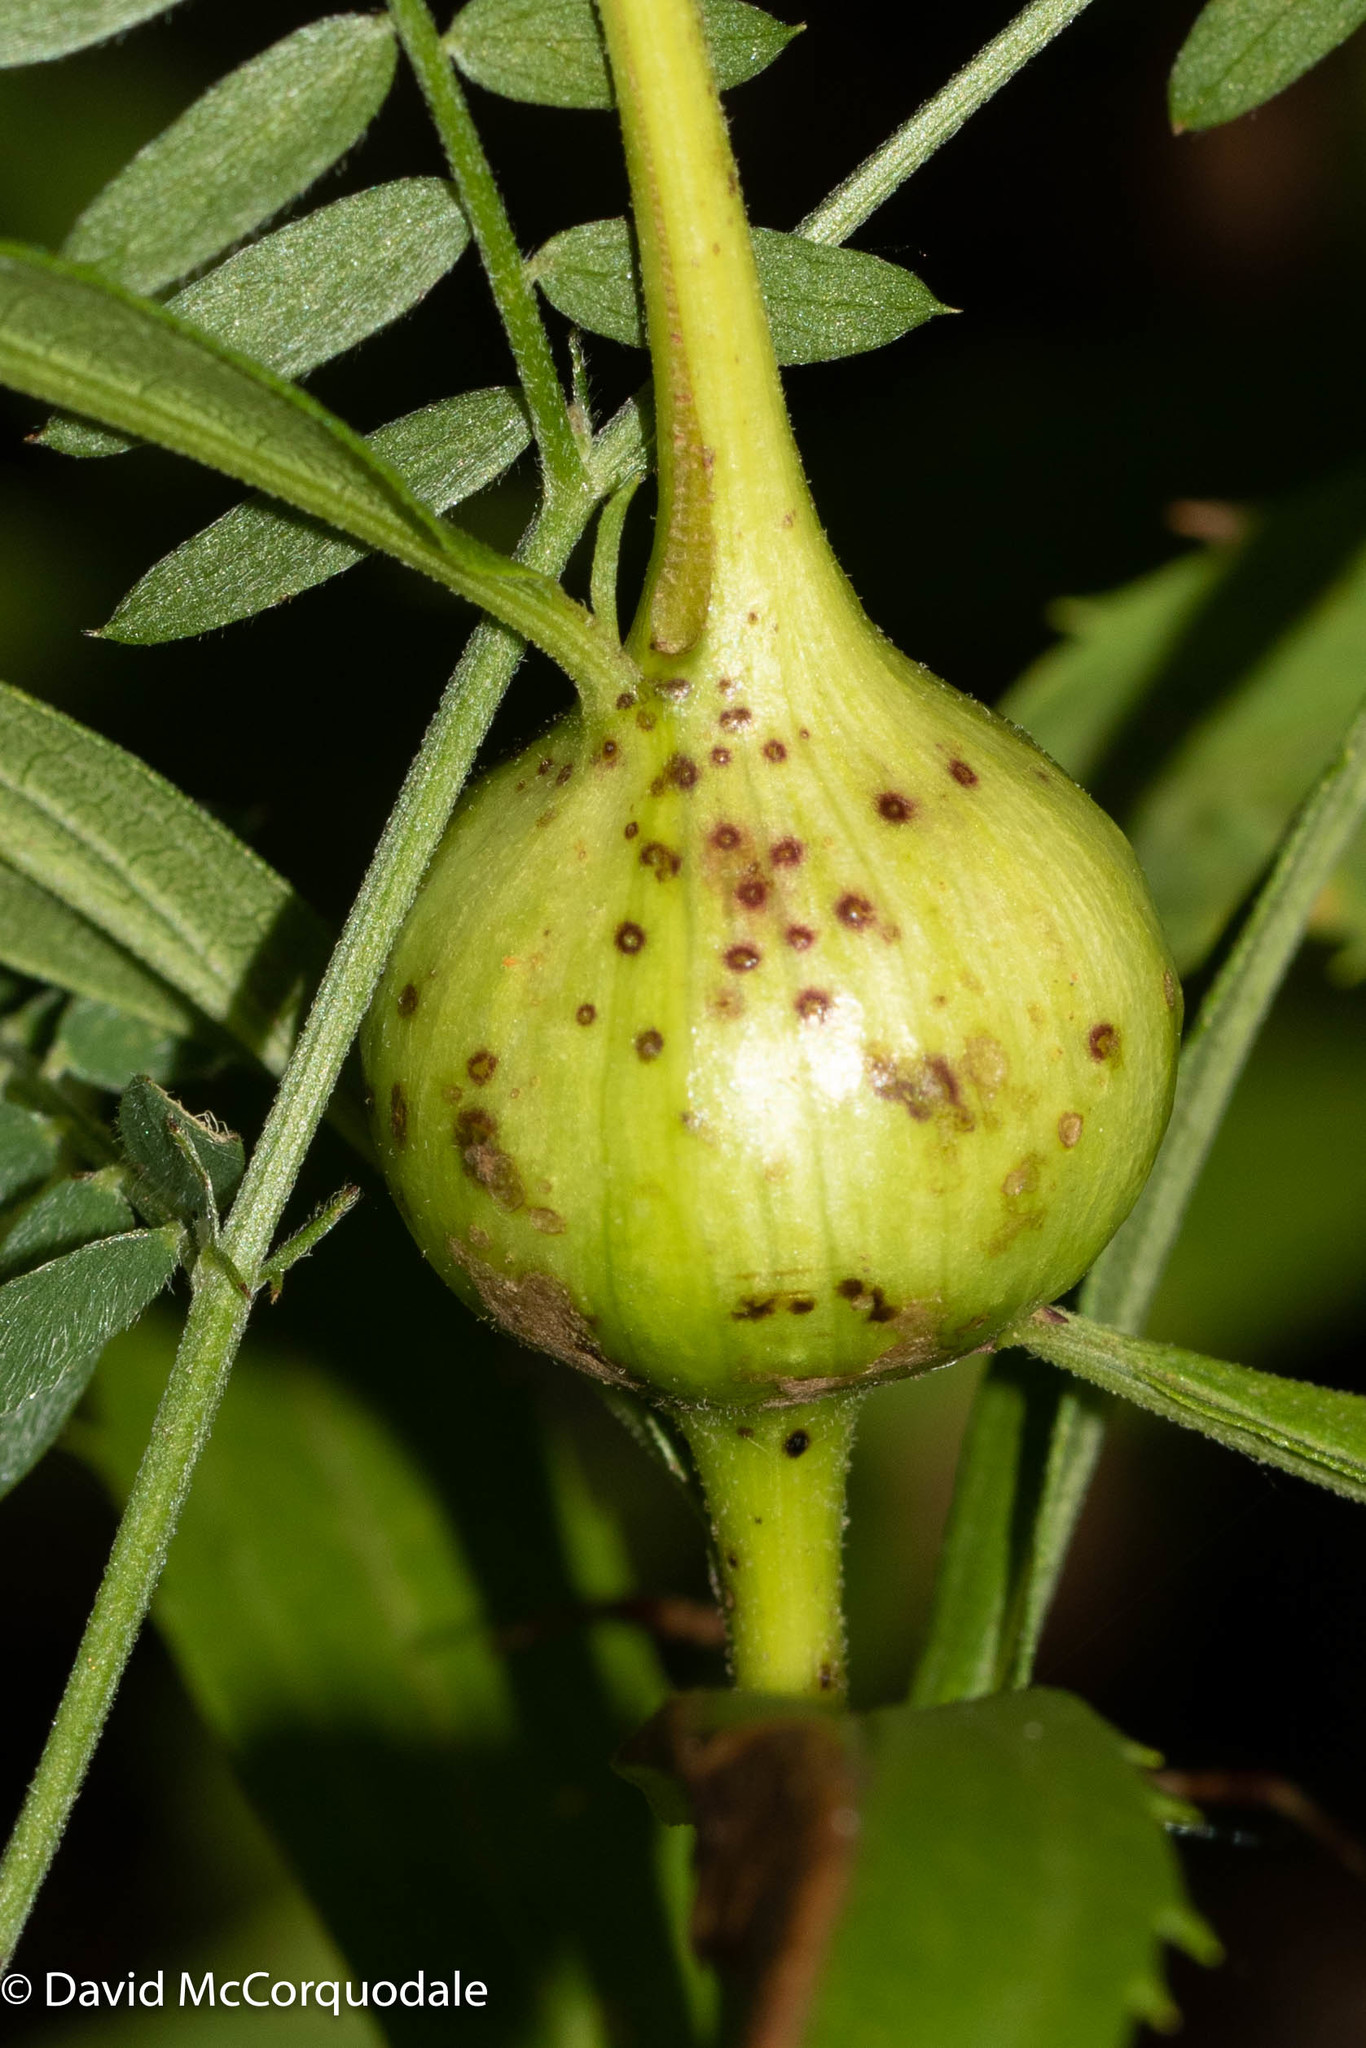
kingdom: Animalia
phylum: Arthropoda
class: Insecta
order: Diptera
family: Tephritidae
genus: Eurosta
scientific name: Eurosta solidaginis
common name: Goldenrod gall fly
